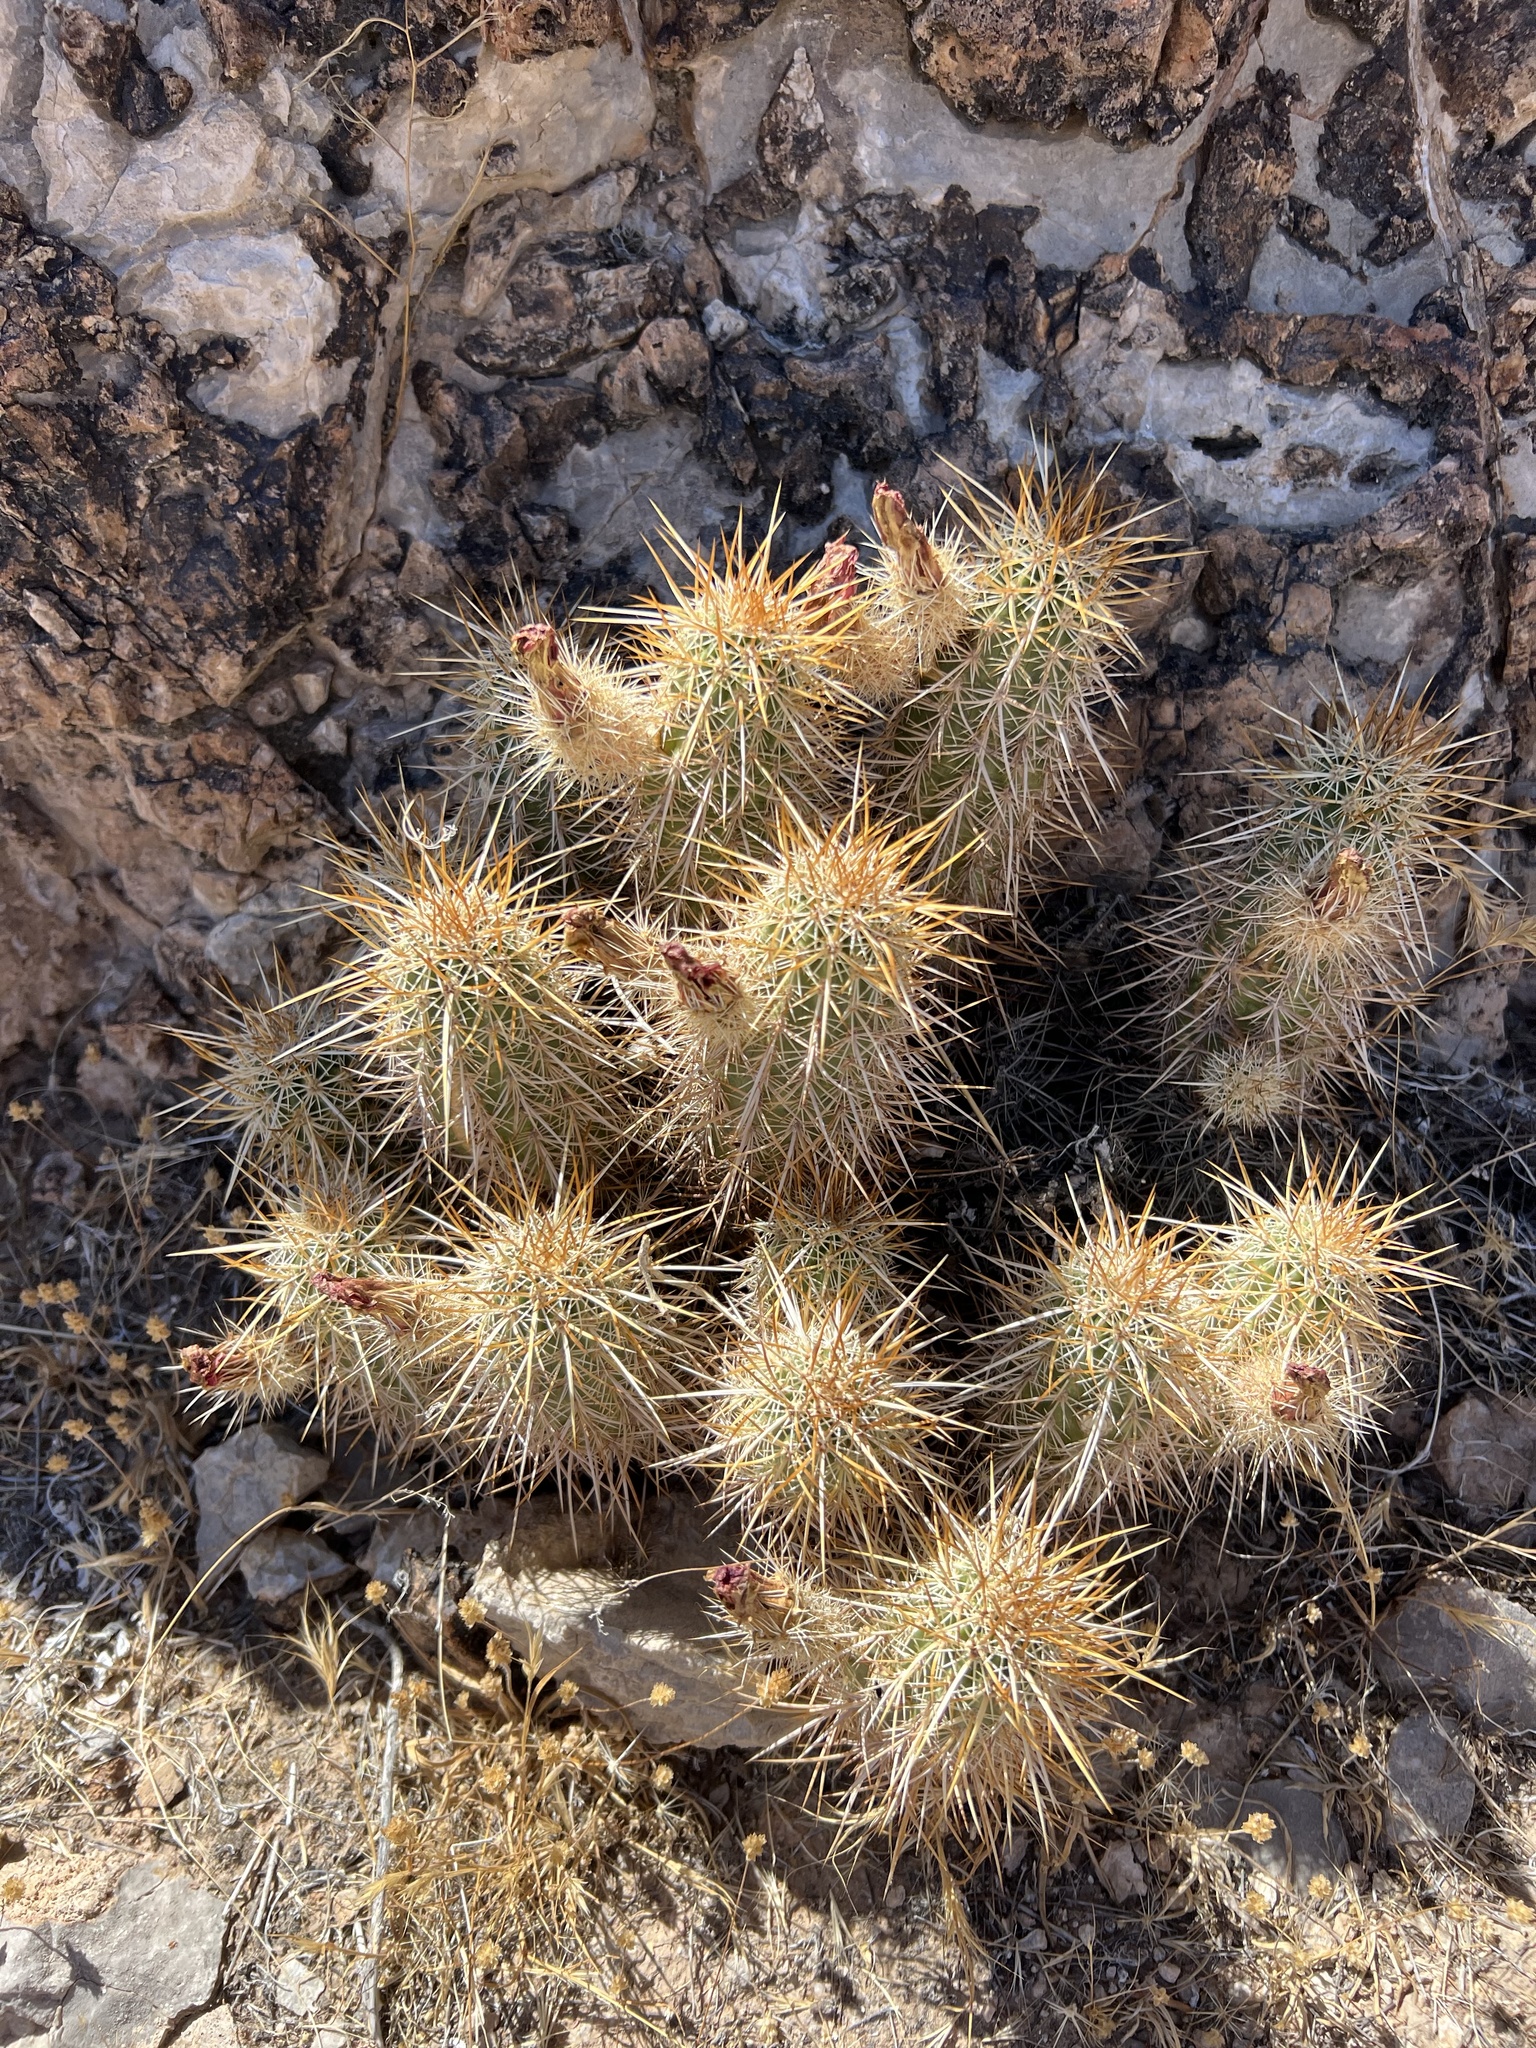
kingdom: Plantae
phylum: Tracheophyta
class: Magnoliopsida
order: Caryophyllales
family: Cactaceae
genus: Echinocereus
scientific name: Echinocereus engelmannii
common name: Engelmann's hedgehog cactus
